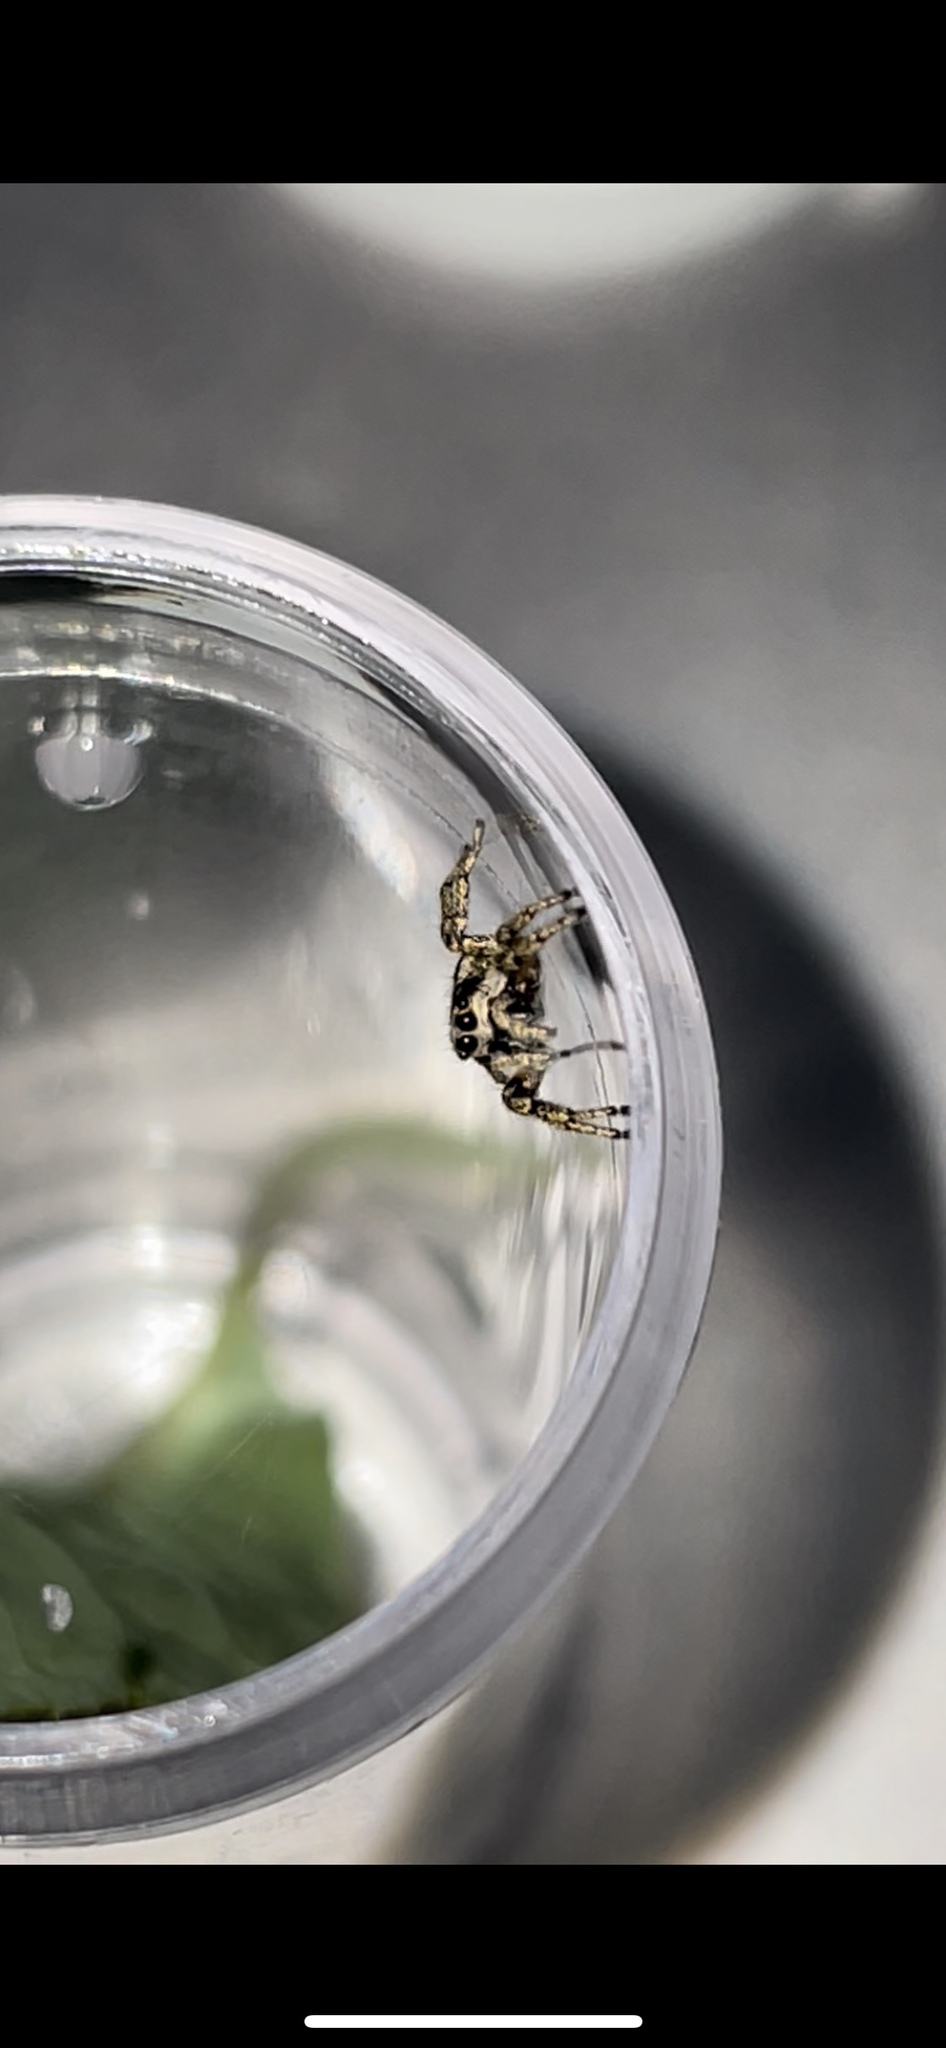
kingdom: Animalia
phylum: Arthropoda
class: Arachnida
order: Araneae
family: Salticidae
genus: Salticus
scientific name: Salticus scenicus
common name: Zebra jumper
